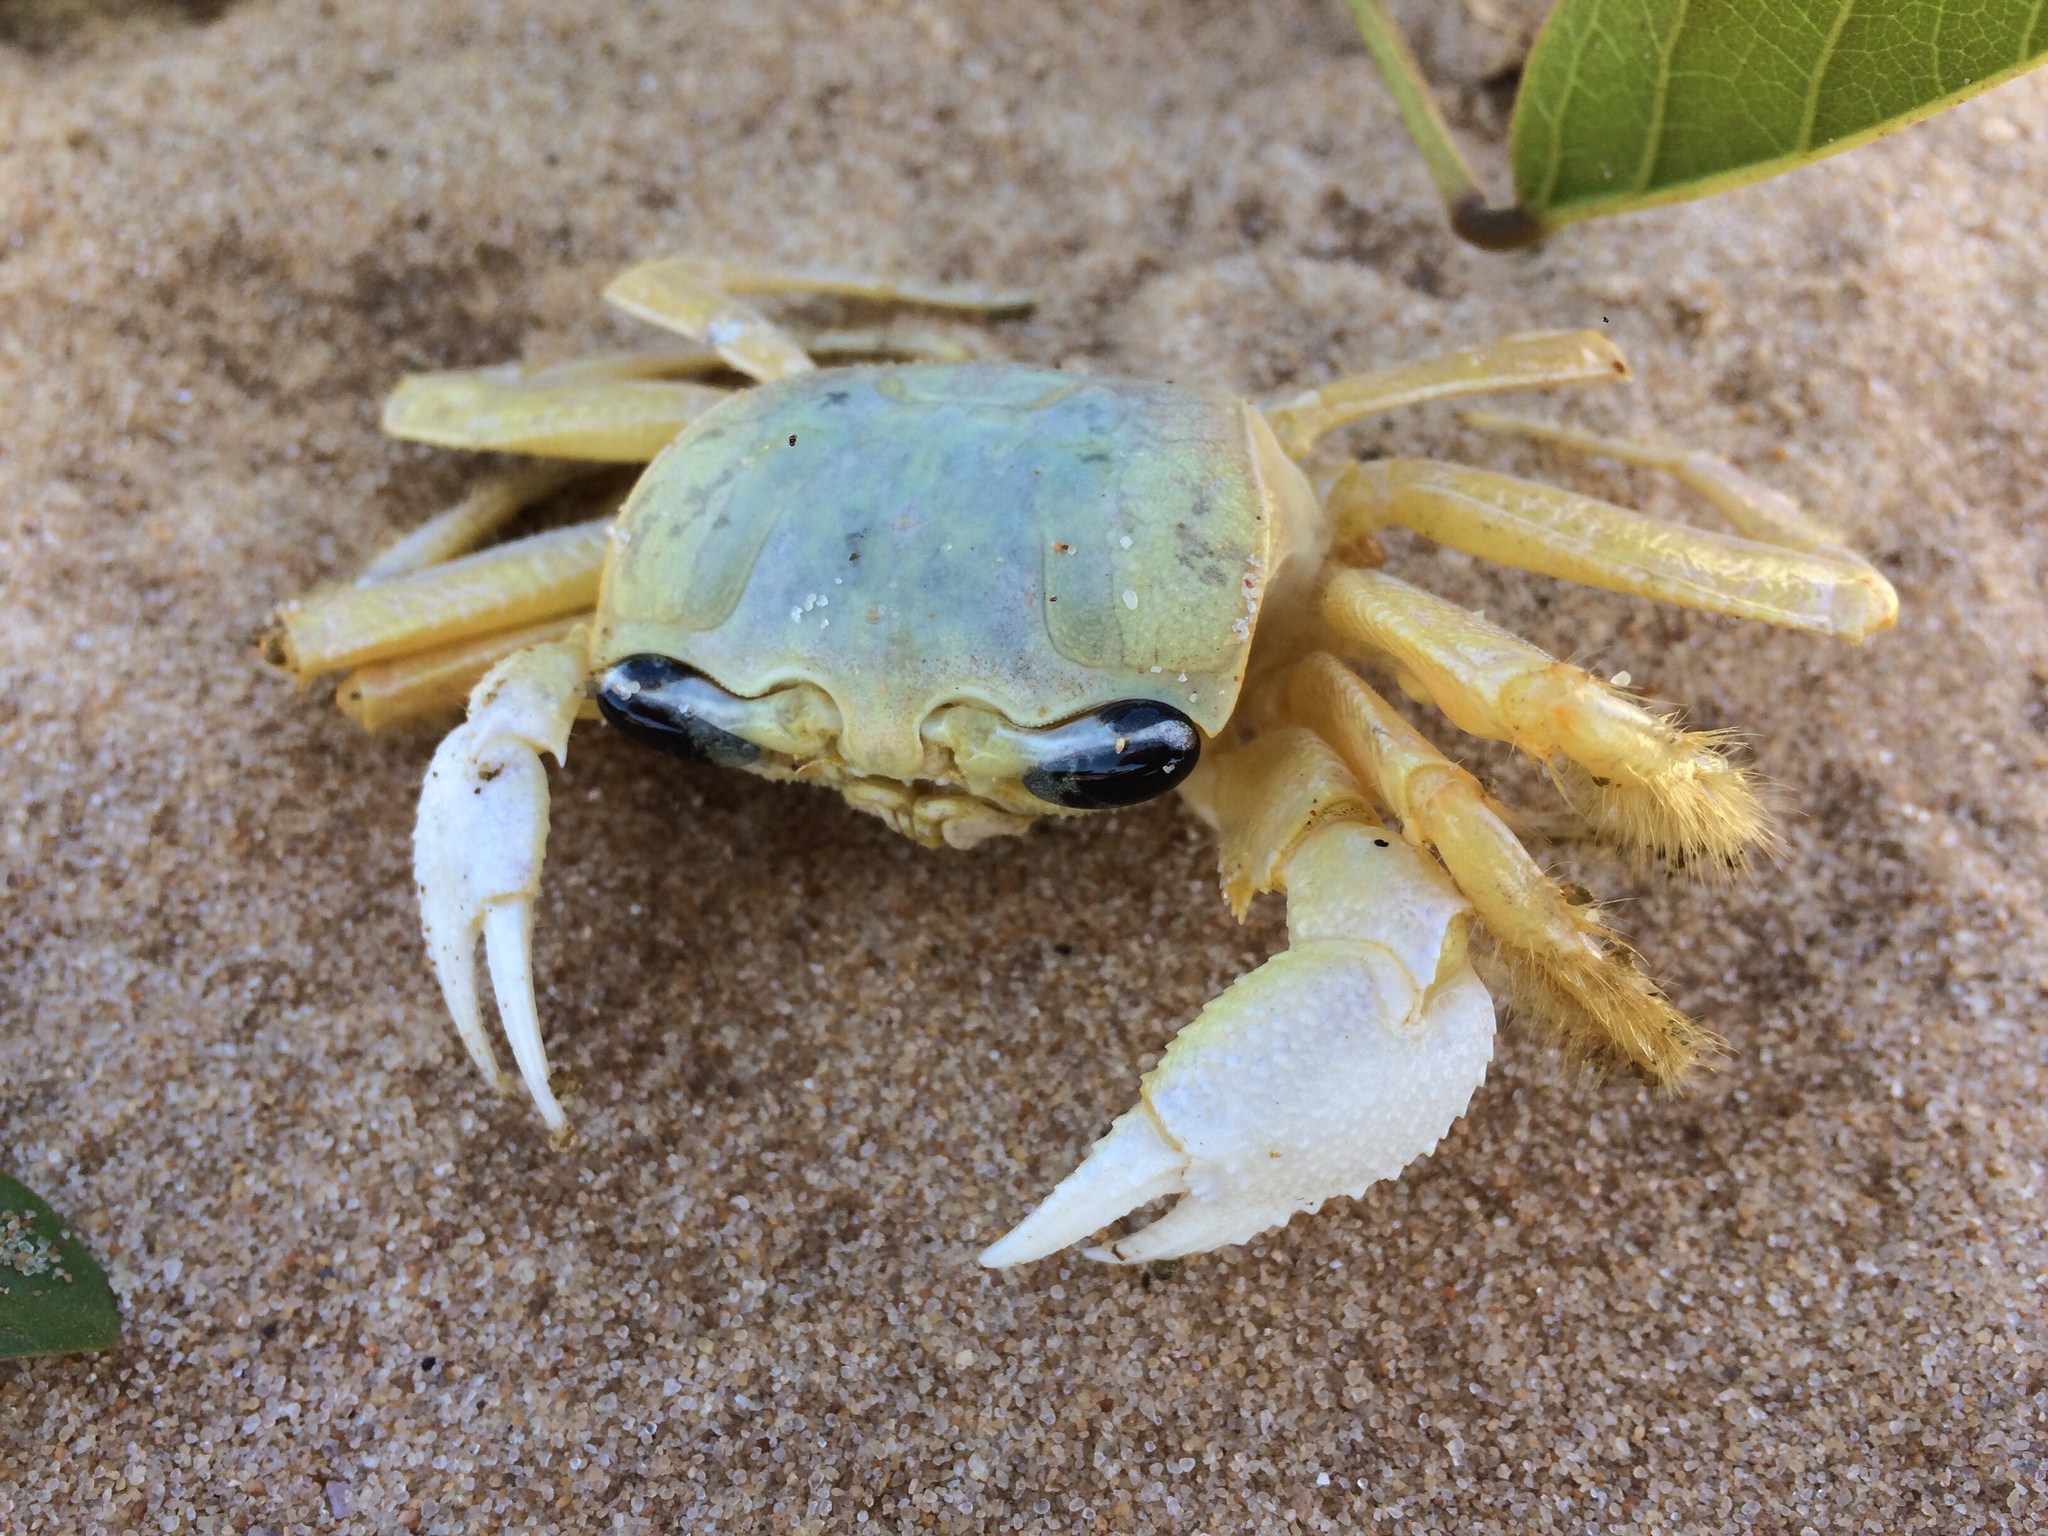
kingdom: Animalia
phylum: Arthropoda
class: Malacostraca
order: Decapoda
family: Ocypodidae
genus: Ocypode
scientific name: Ocypode quadrata
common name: Ghost crab
